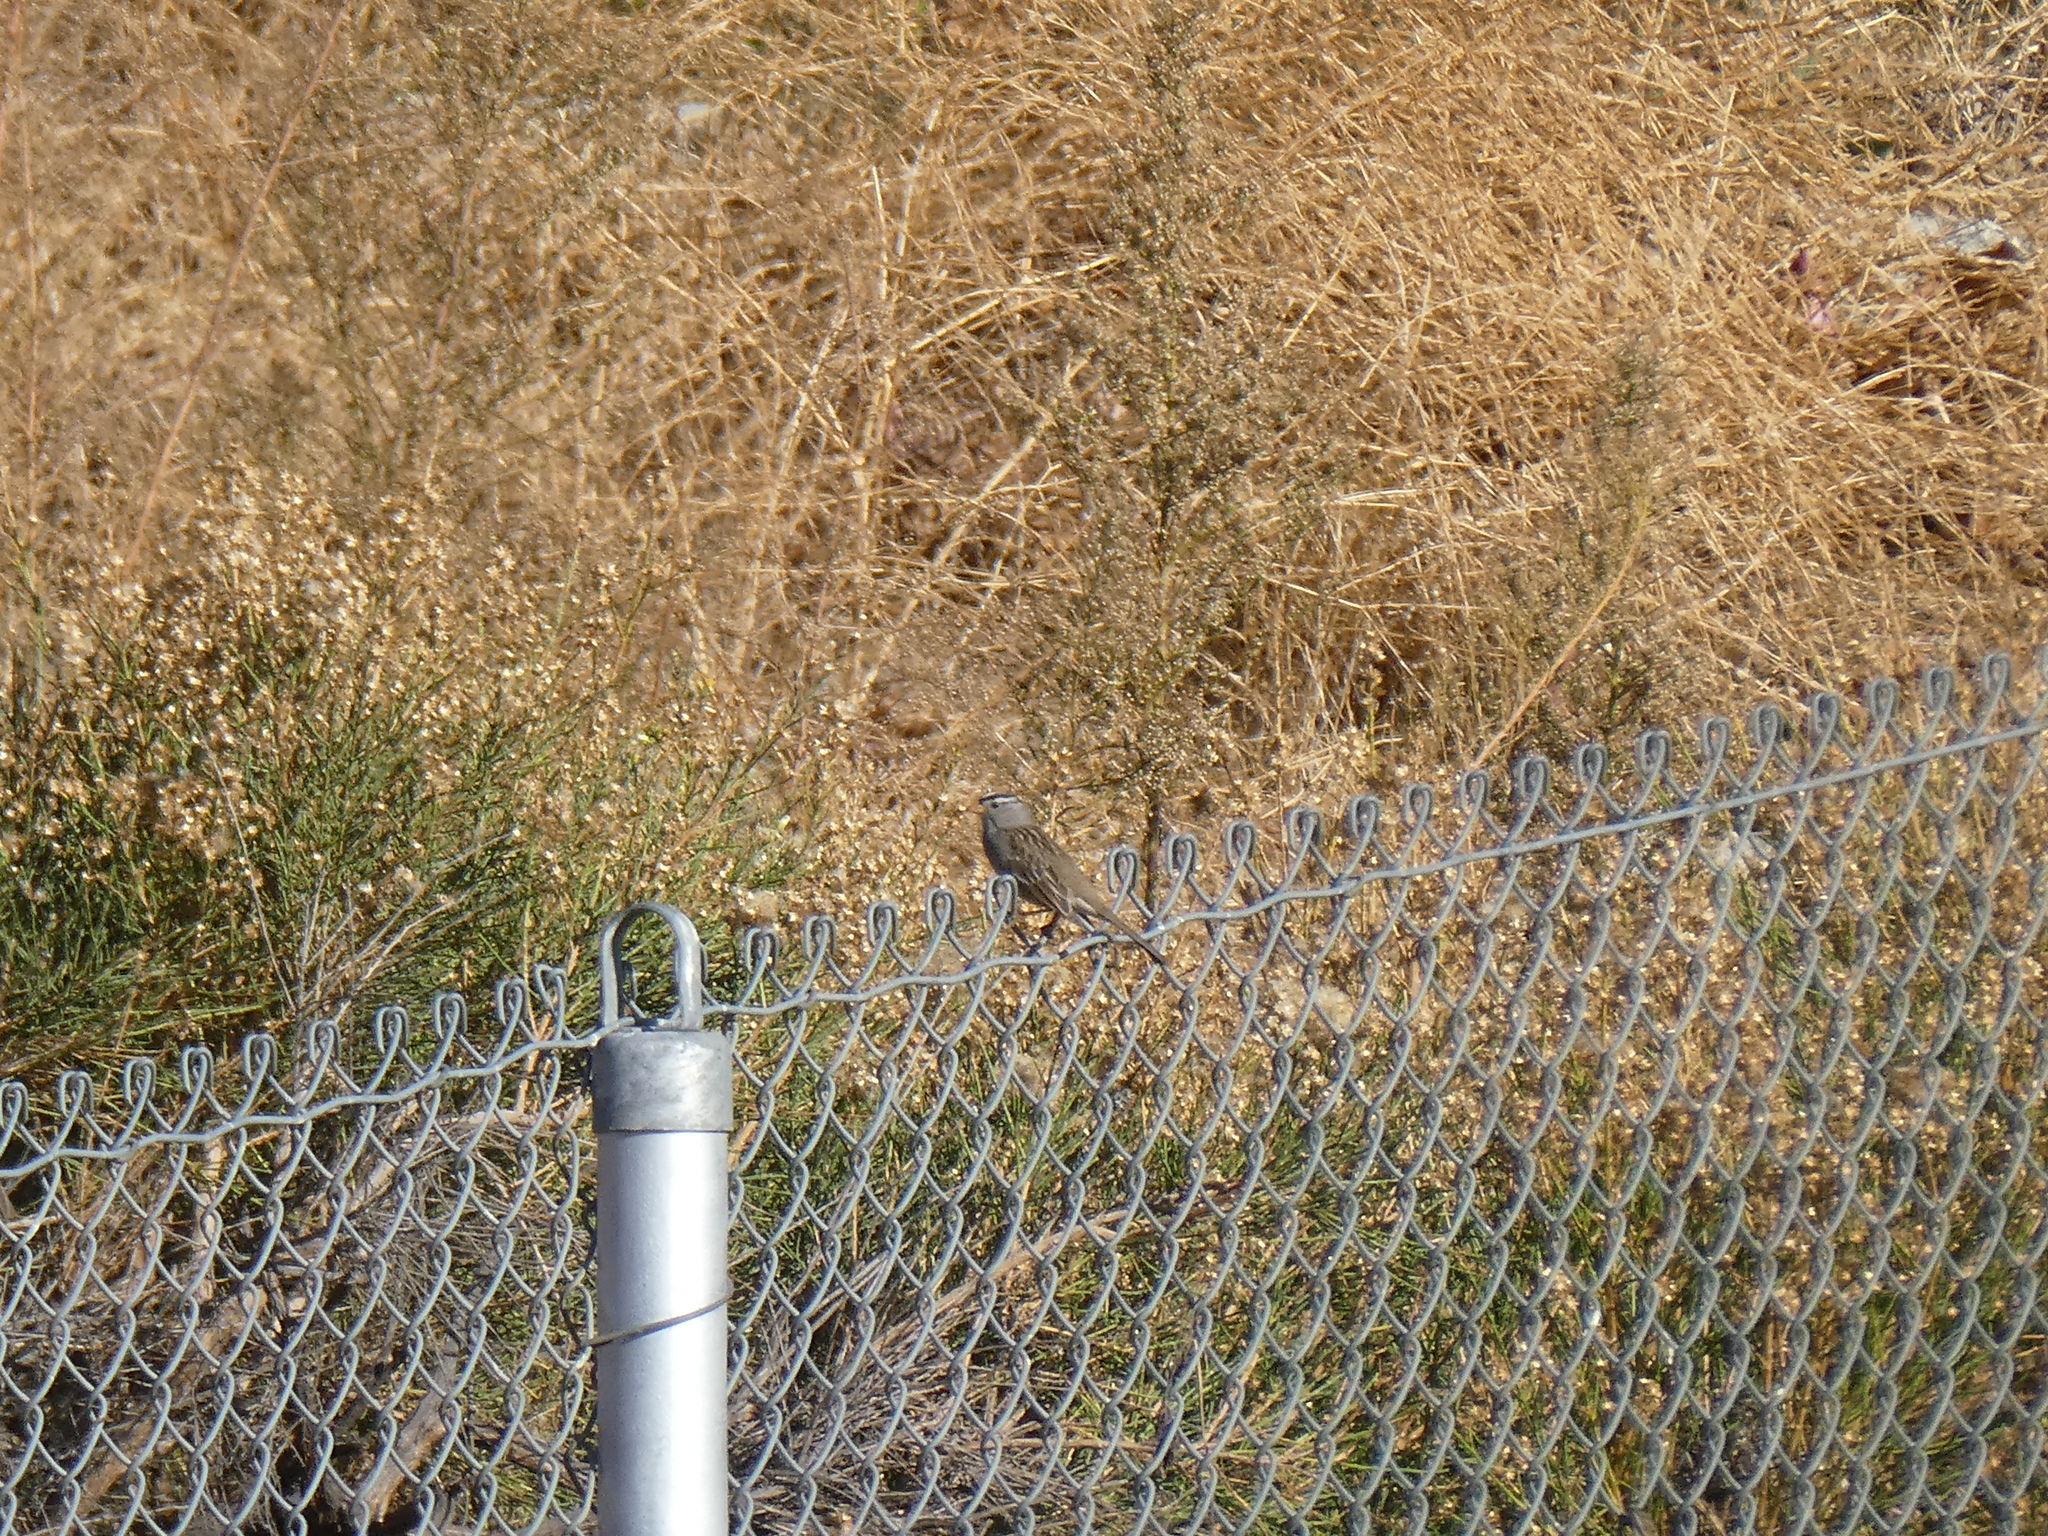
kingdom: Animalia
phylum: Chordata
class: Aves
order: Passeriformes
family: Passerellidae
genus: Zonotrichia
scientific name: Zonotrichia leucophrys
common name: White-crowned sparrow
